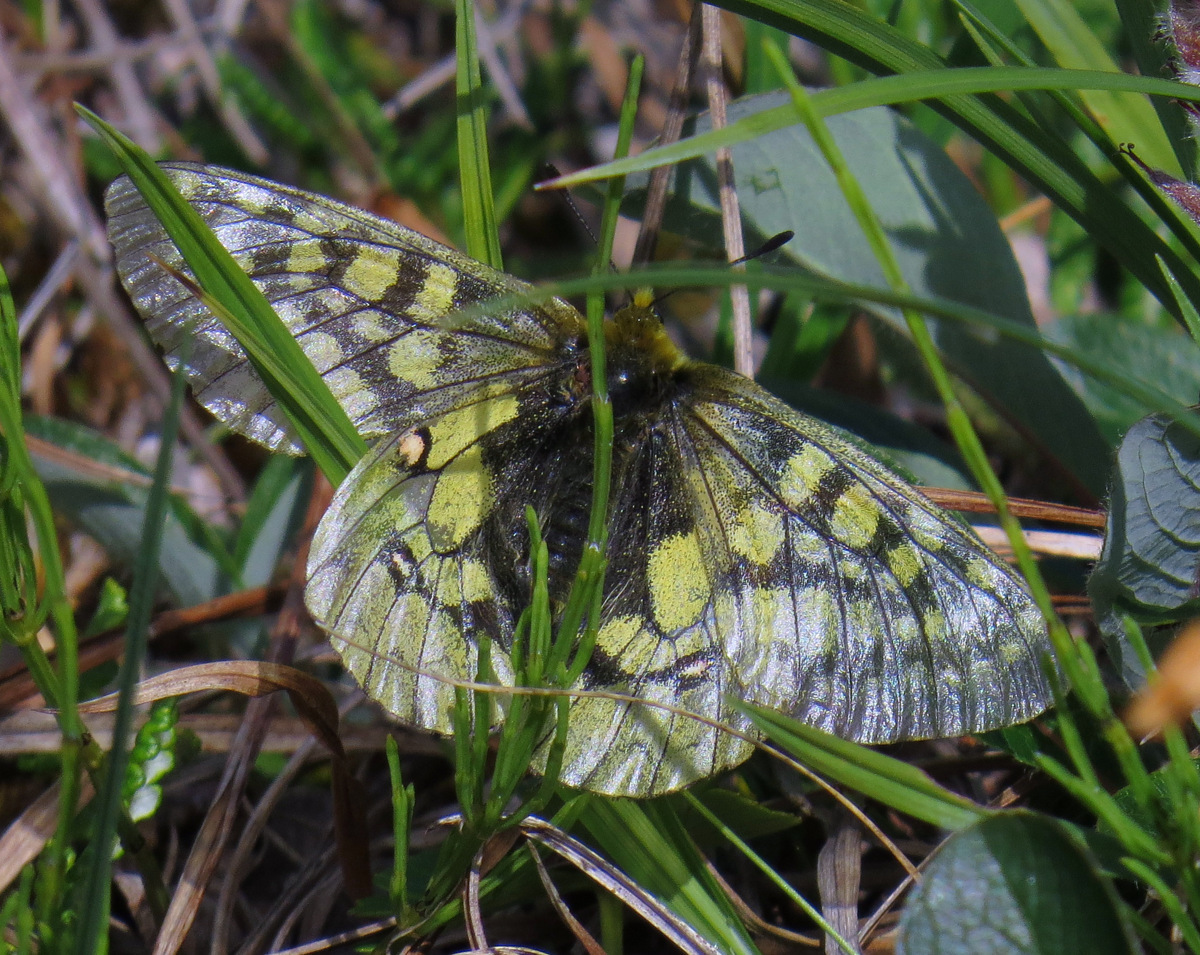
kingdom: Animalia
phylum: Arthropoda
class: Insecta
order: Lepidoptera
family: Papilionidae
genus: Parnassius
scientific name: Parnassius eversmanni
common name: Eversmann's parnassian
